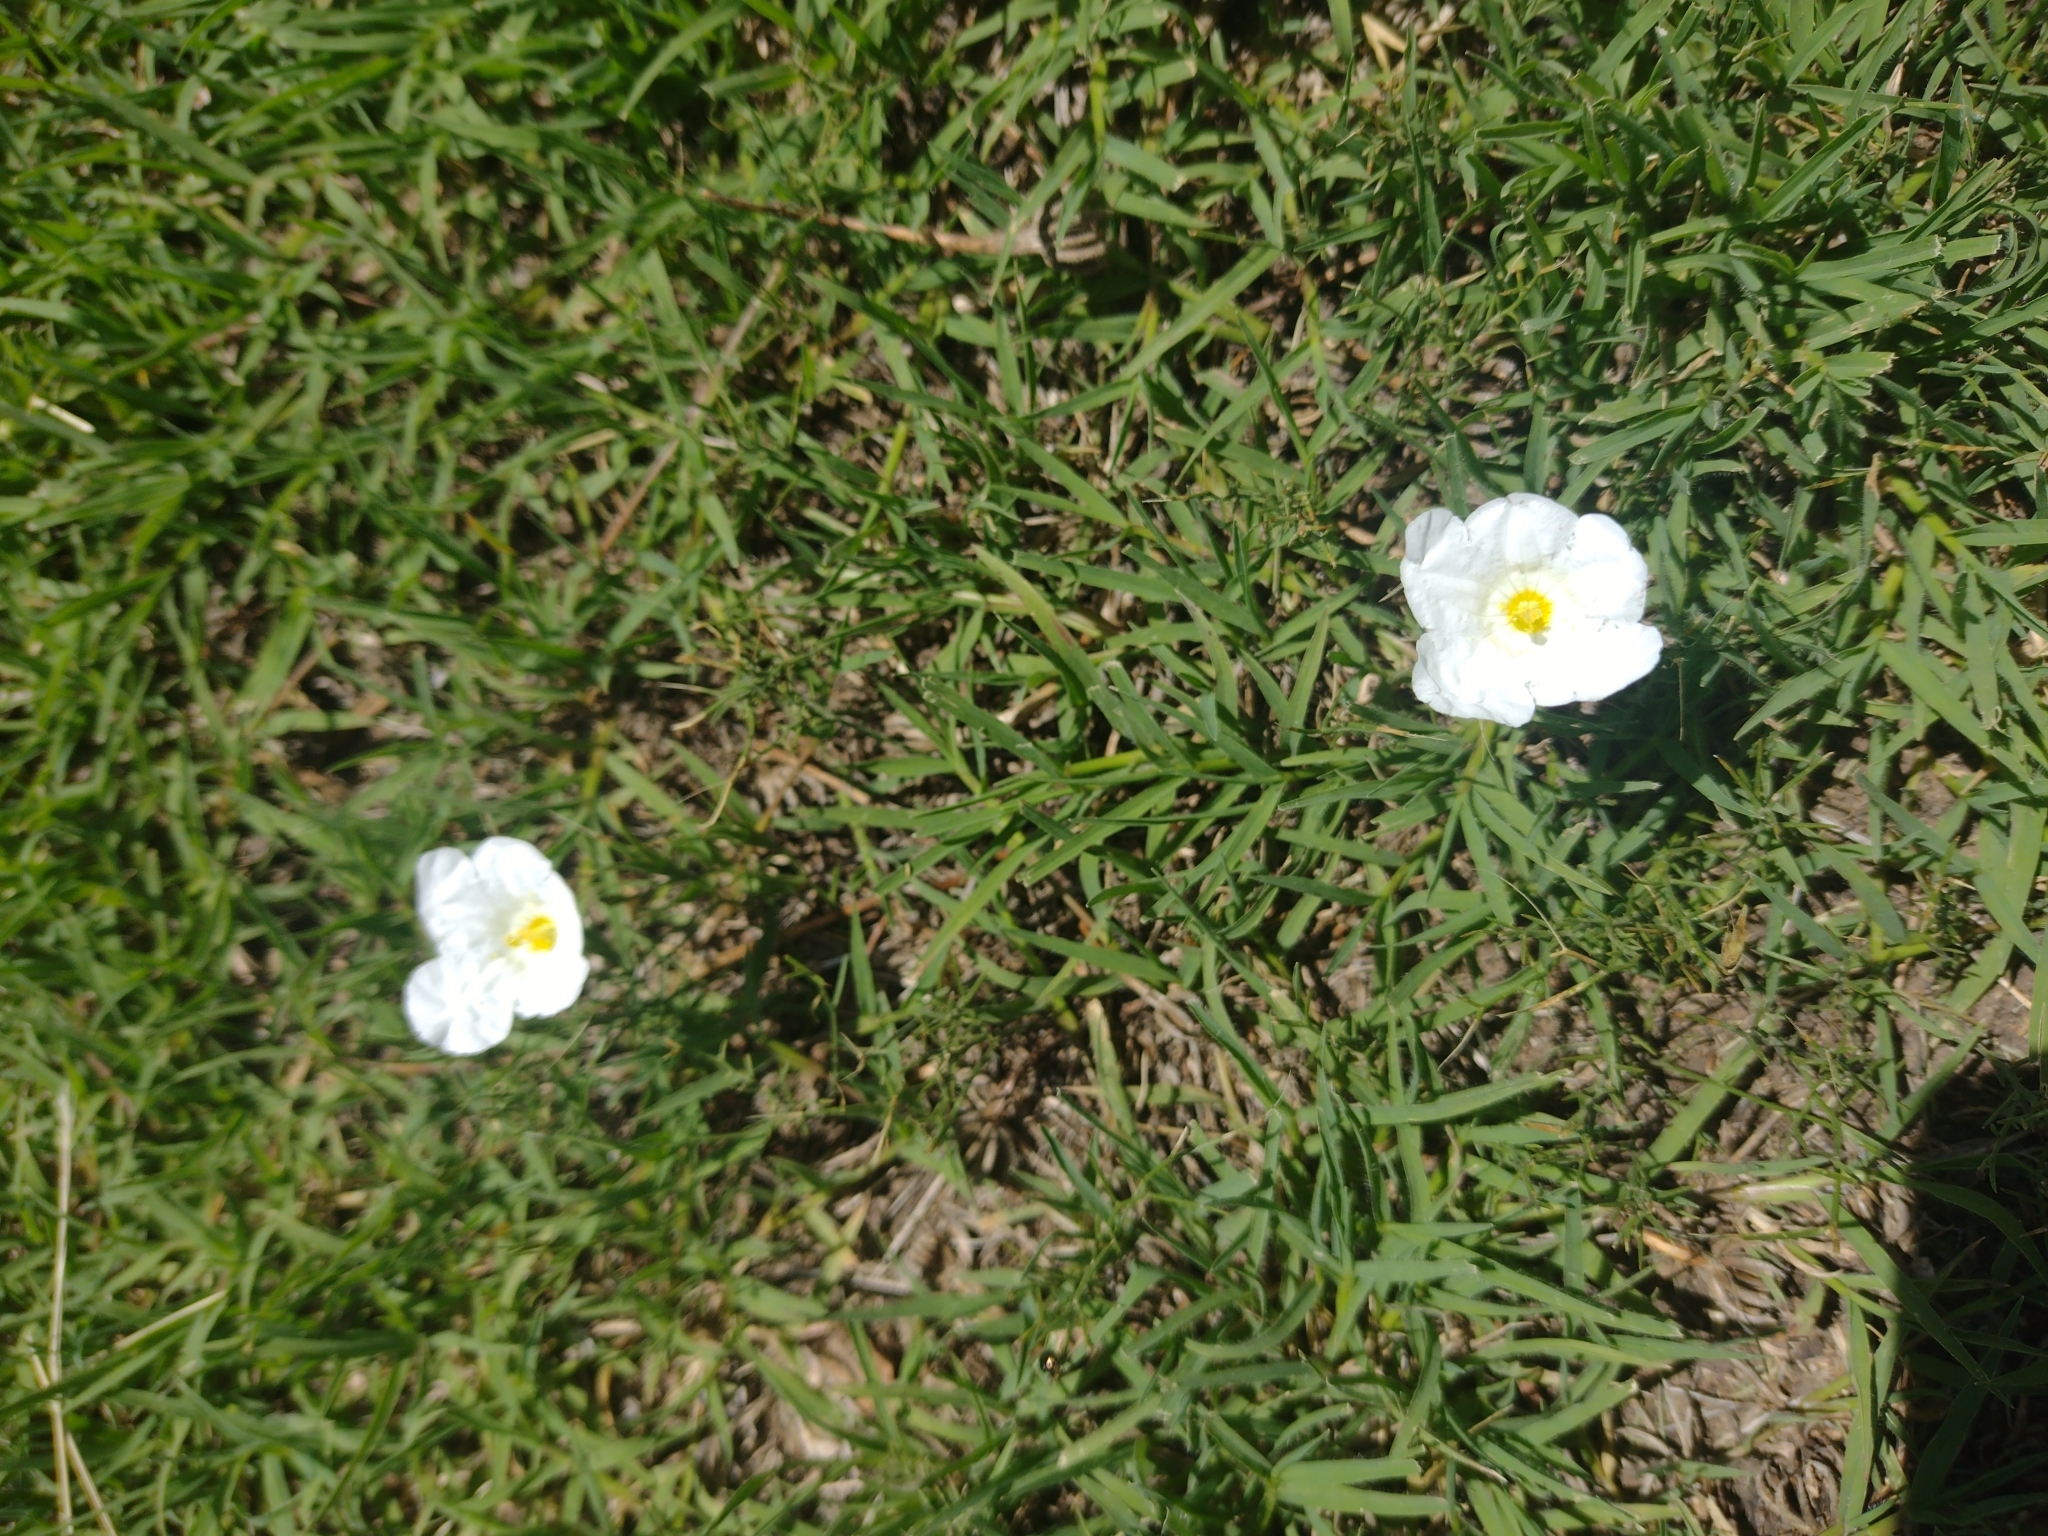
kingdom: Plantae
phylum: Tracheophyta
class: Magnoliopsida
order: Solanales
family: Solanaceae
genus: Nierembergia
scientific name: Nierembergia rigida
